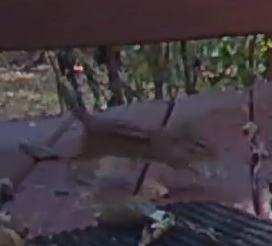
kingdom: Animalia
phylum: Chordata
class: Mammalia
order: Rodentia
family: Sciuridae
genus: Tamias
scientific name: Tamias striatus
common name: Eastern chipmunk
